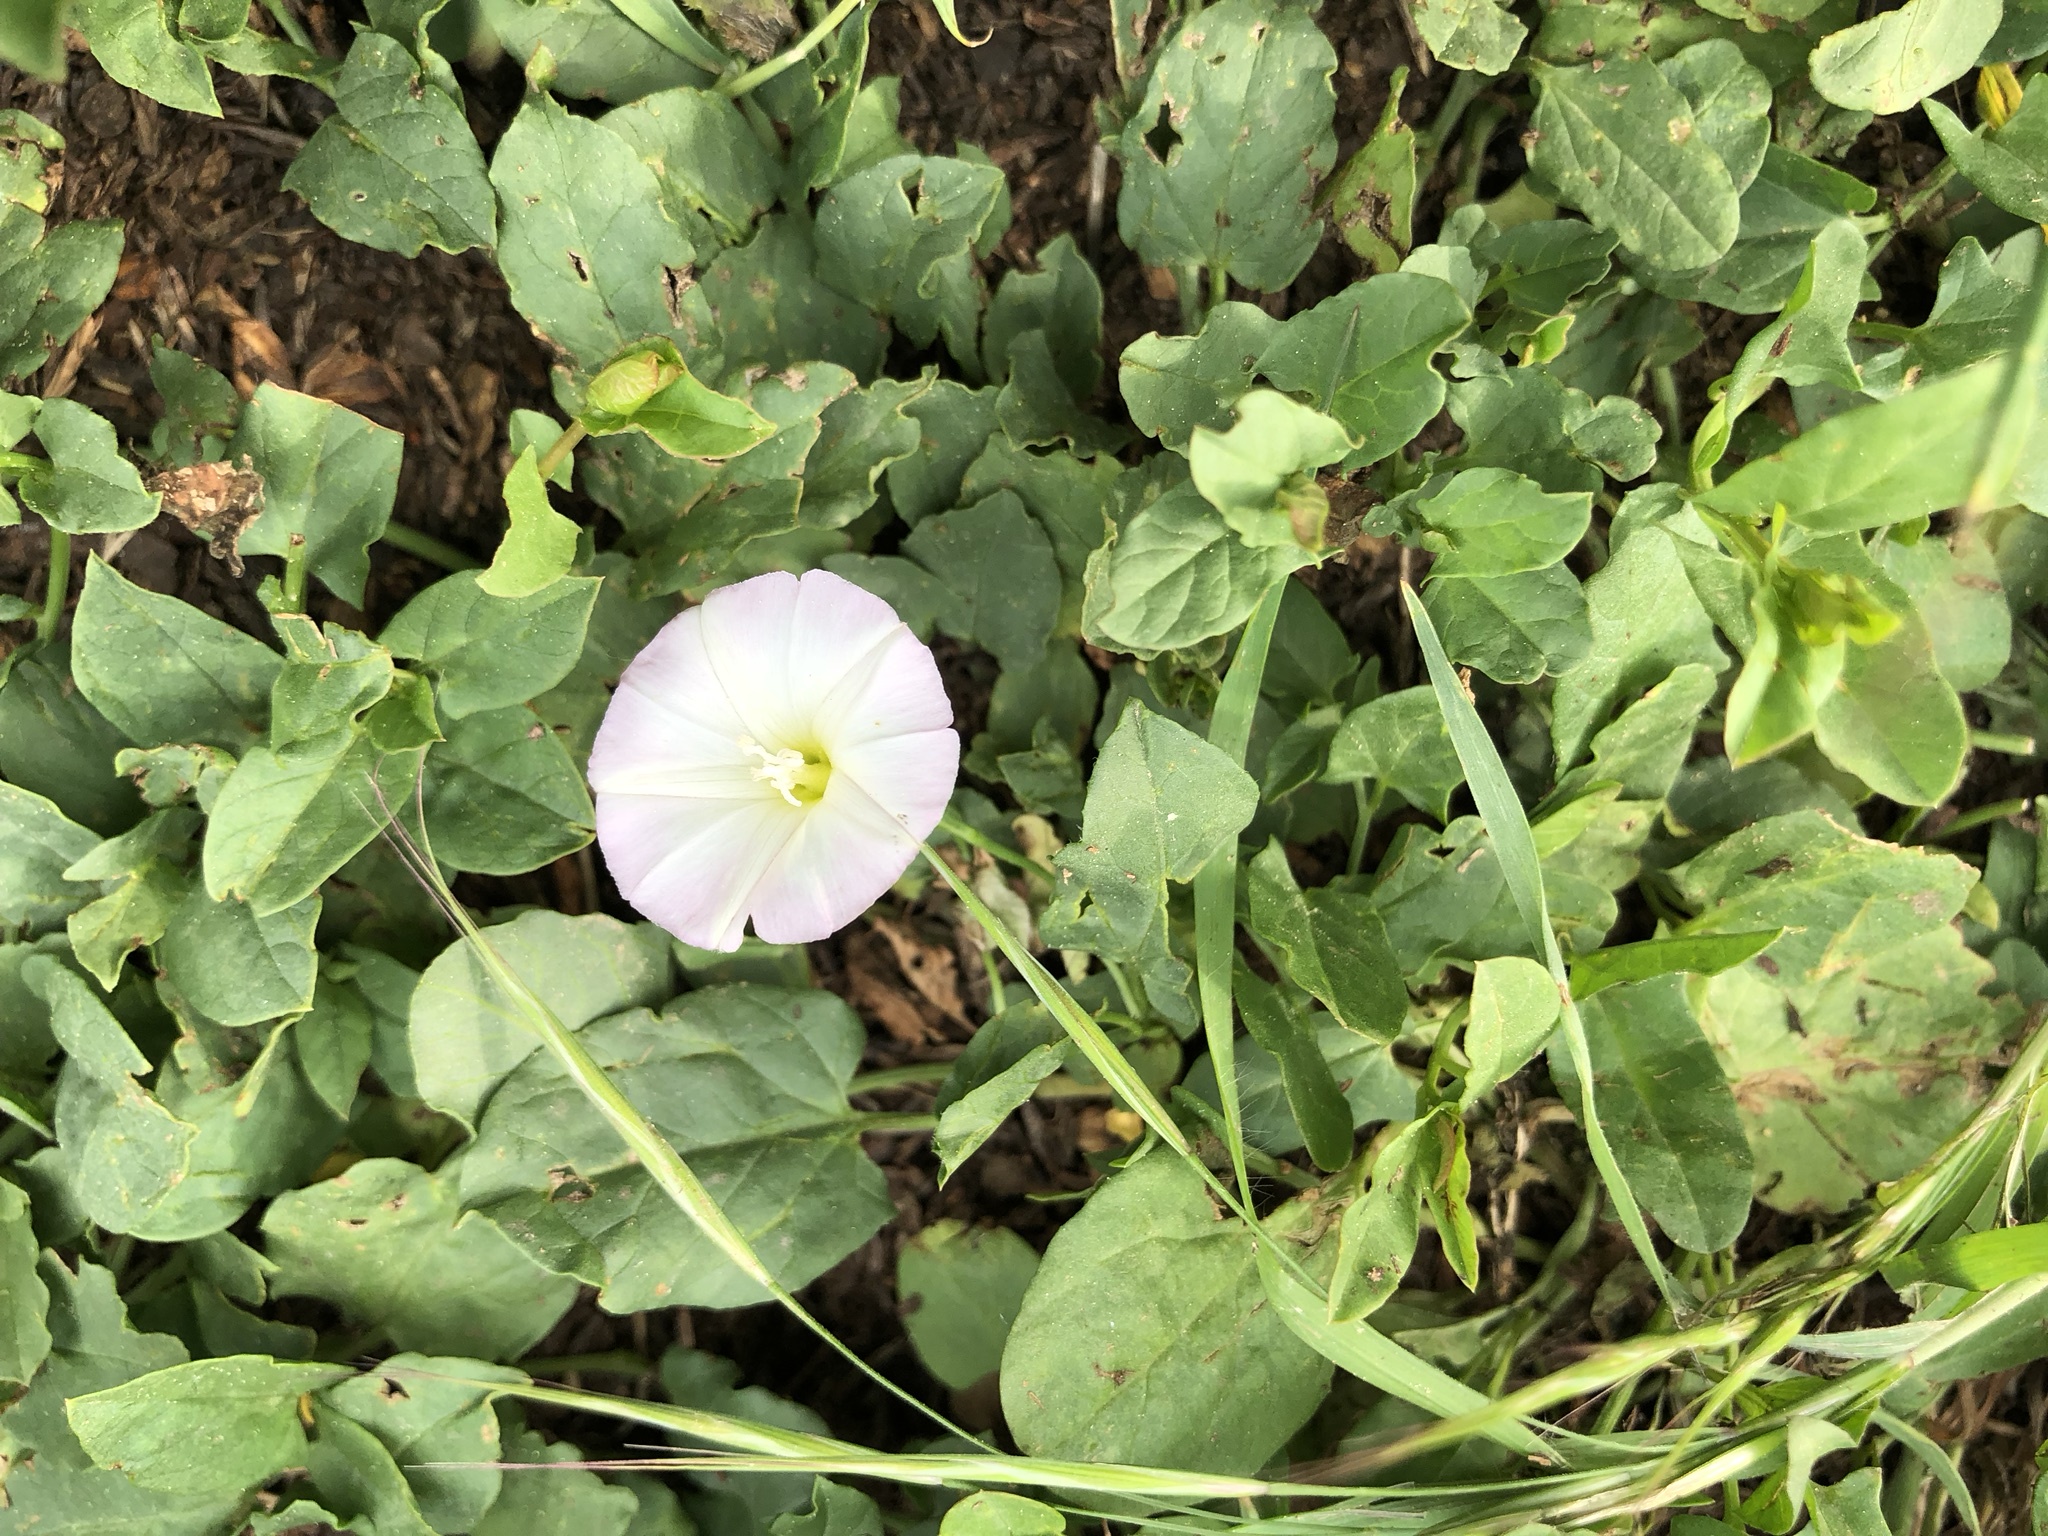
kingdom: Plantae
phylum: Tracheophyta
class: Magnoliopsida
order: Solanales
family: Convolvulaceae
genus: Convolvulus
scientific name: Convolvulus arvensis
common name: Field bindweed
